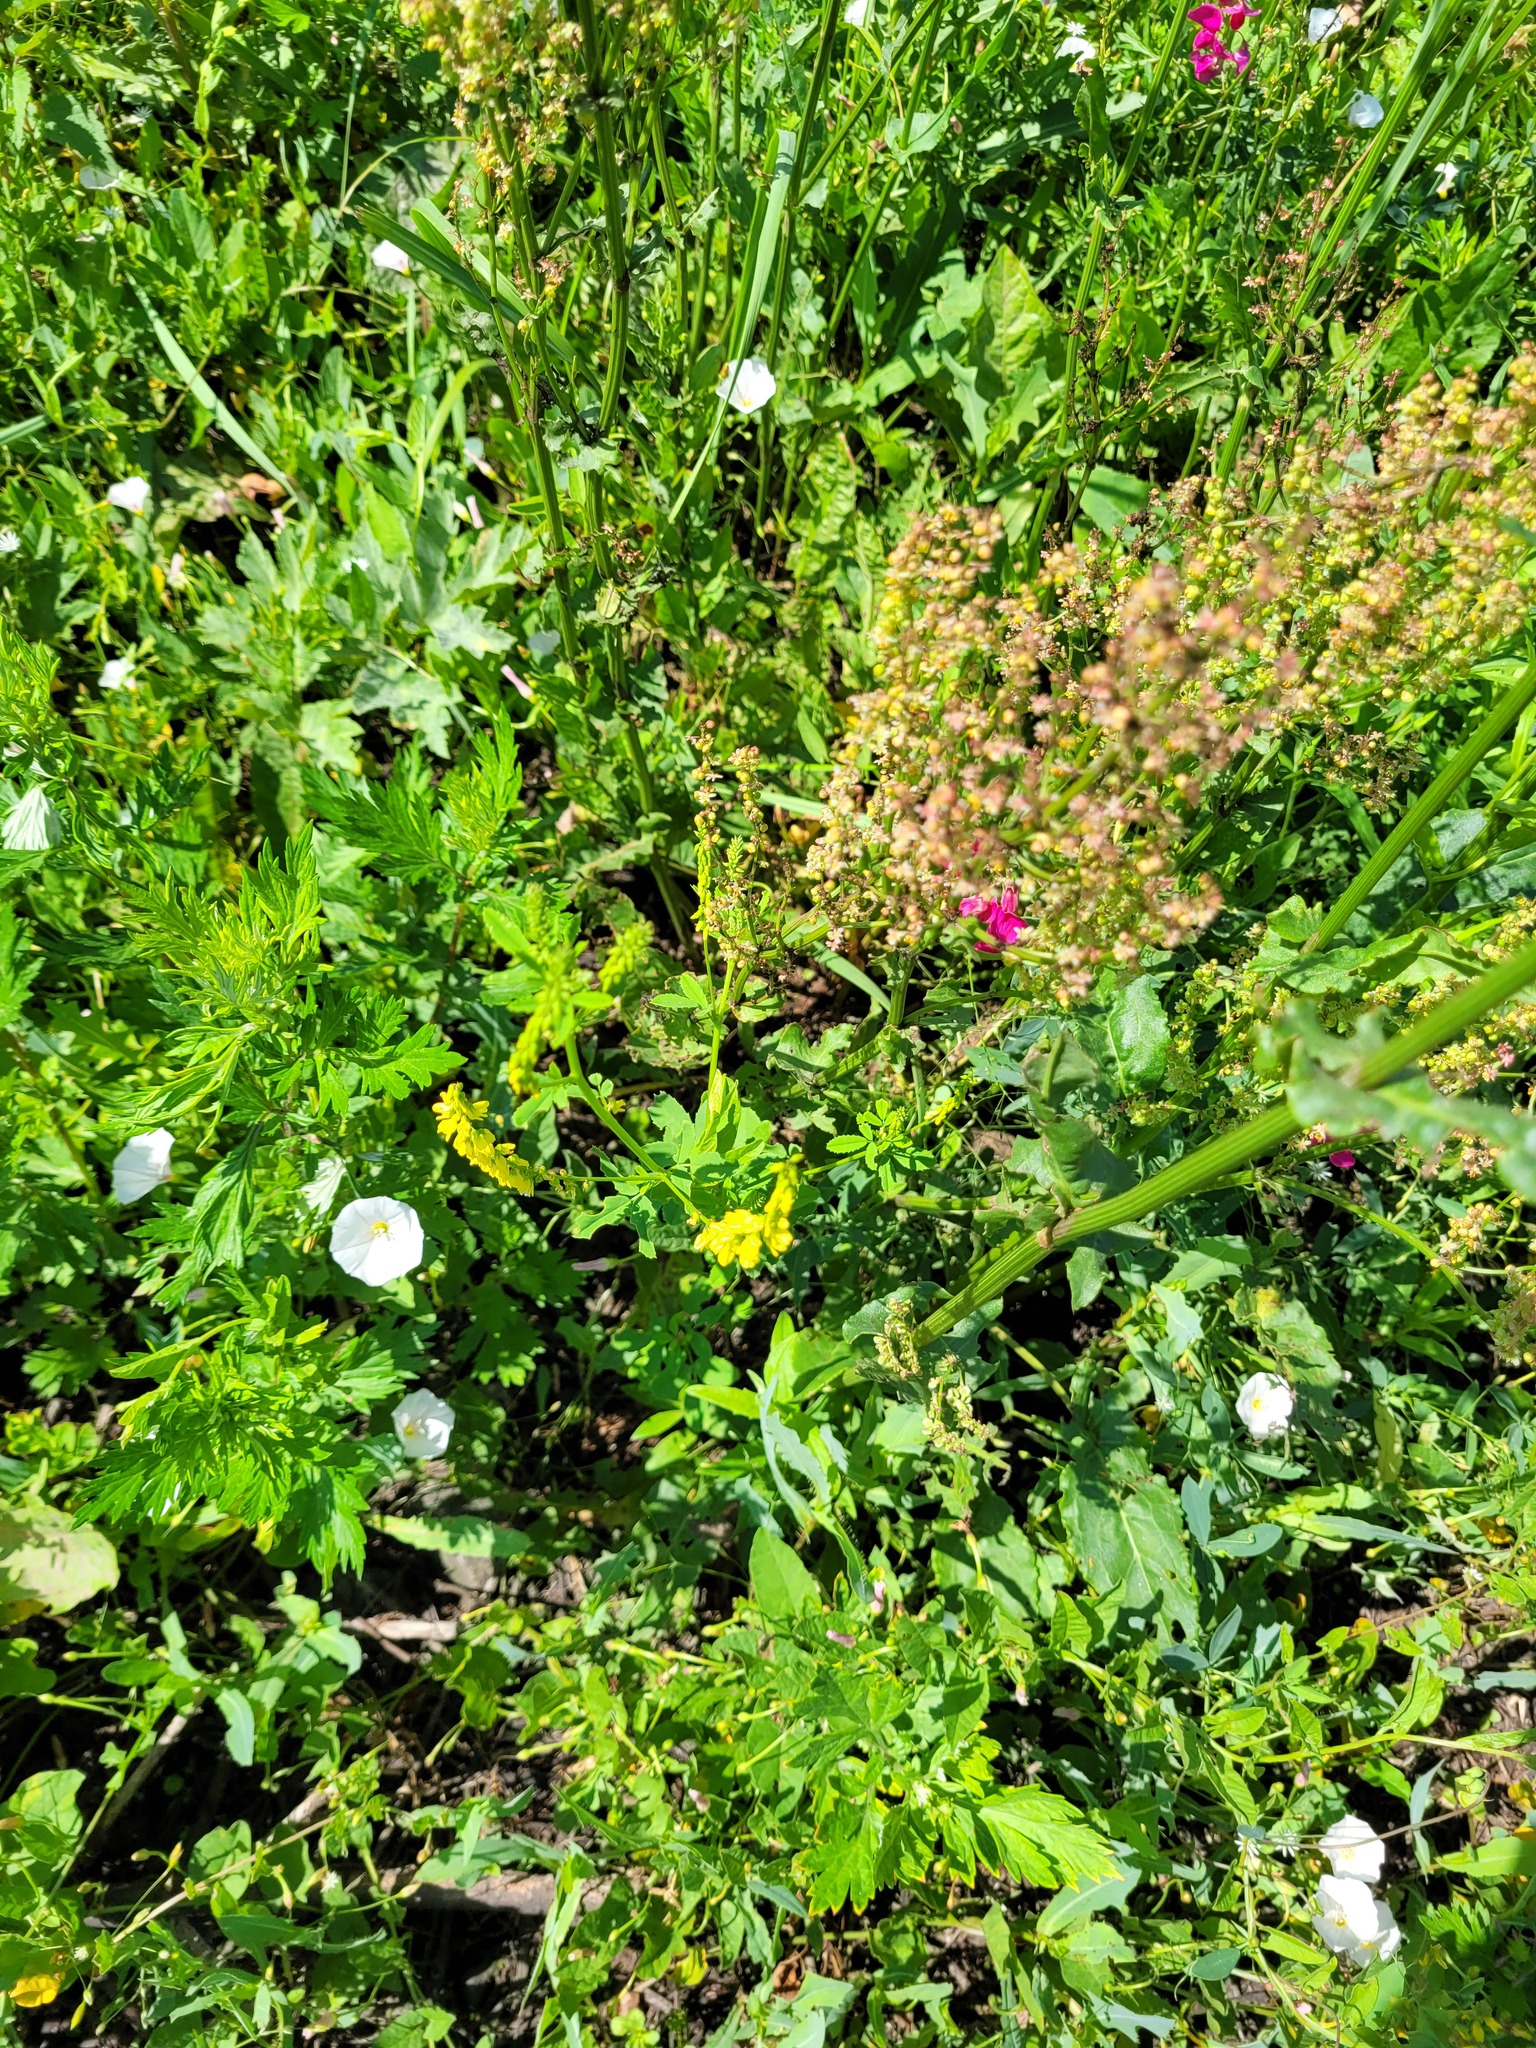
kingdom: Plantae
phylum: Tracheophyta
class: Magnoliopsida
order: Fabales
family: Fabaceae
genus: Melilotus
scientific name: Melilotus officinalis
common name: Sweetclover
